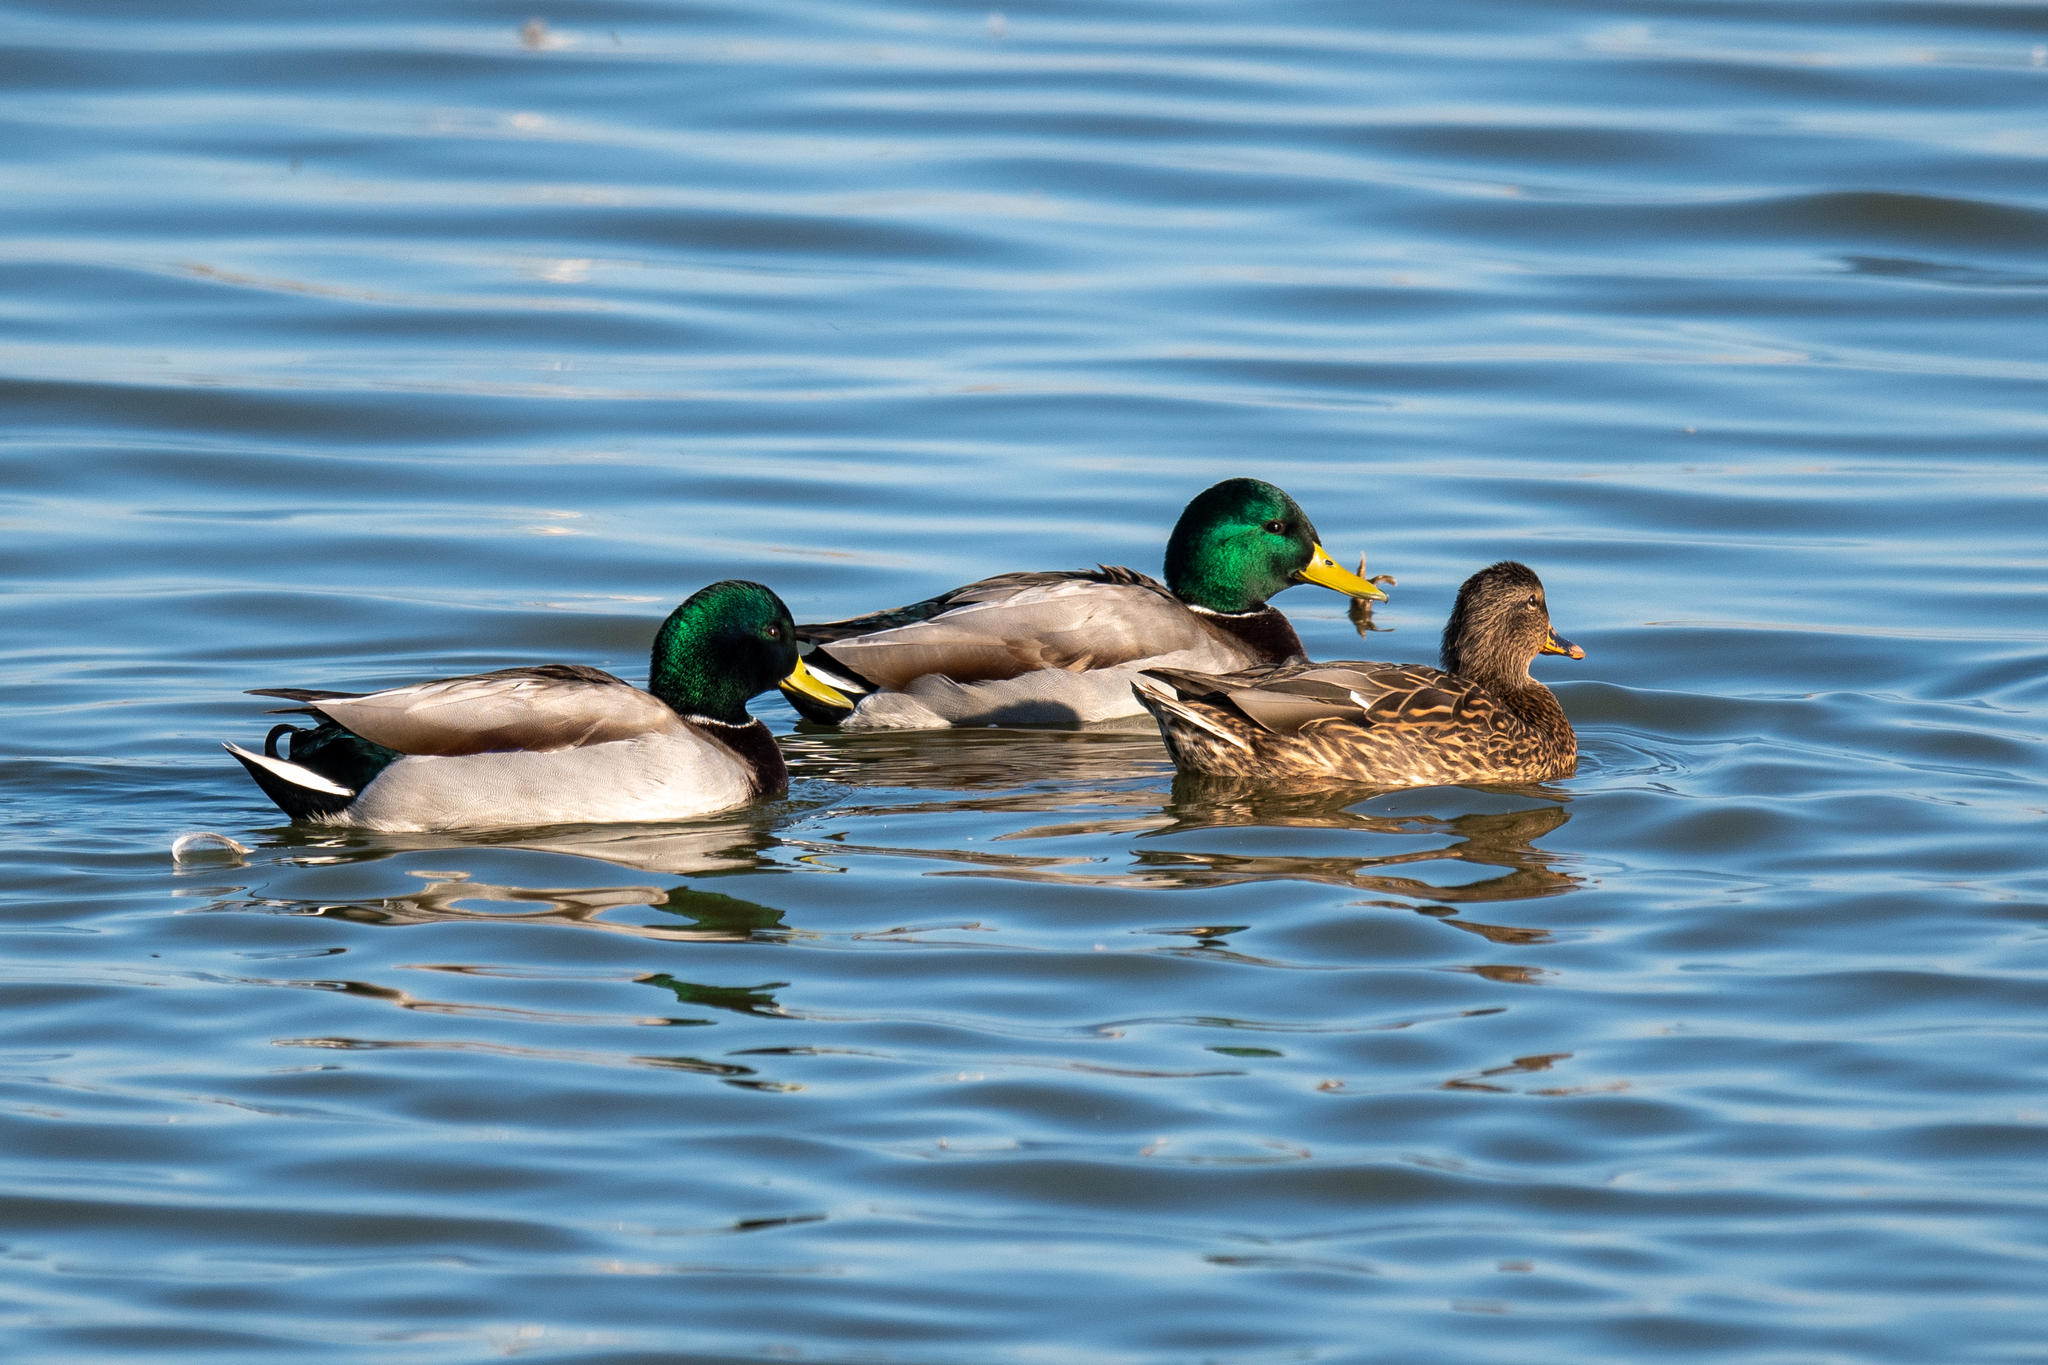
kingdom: Animalia
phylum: Chordata
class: Aves
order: Anseriformes
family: Anatidae
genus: Anas
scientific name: Anas platyrhynchos
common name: Mallard
